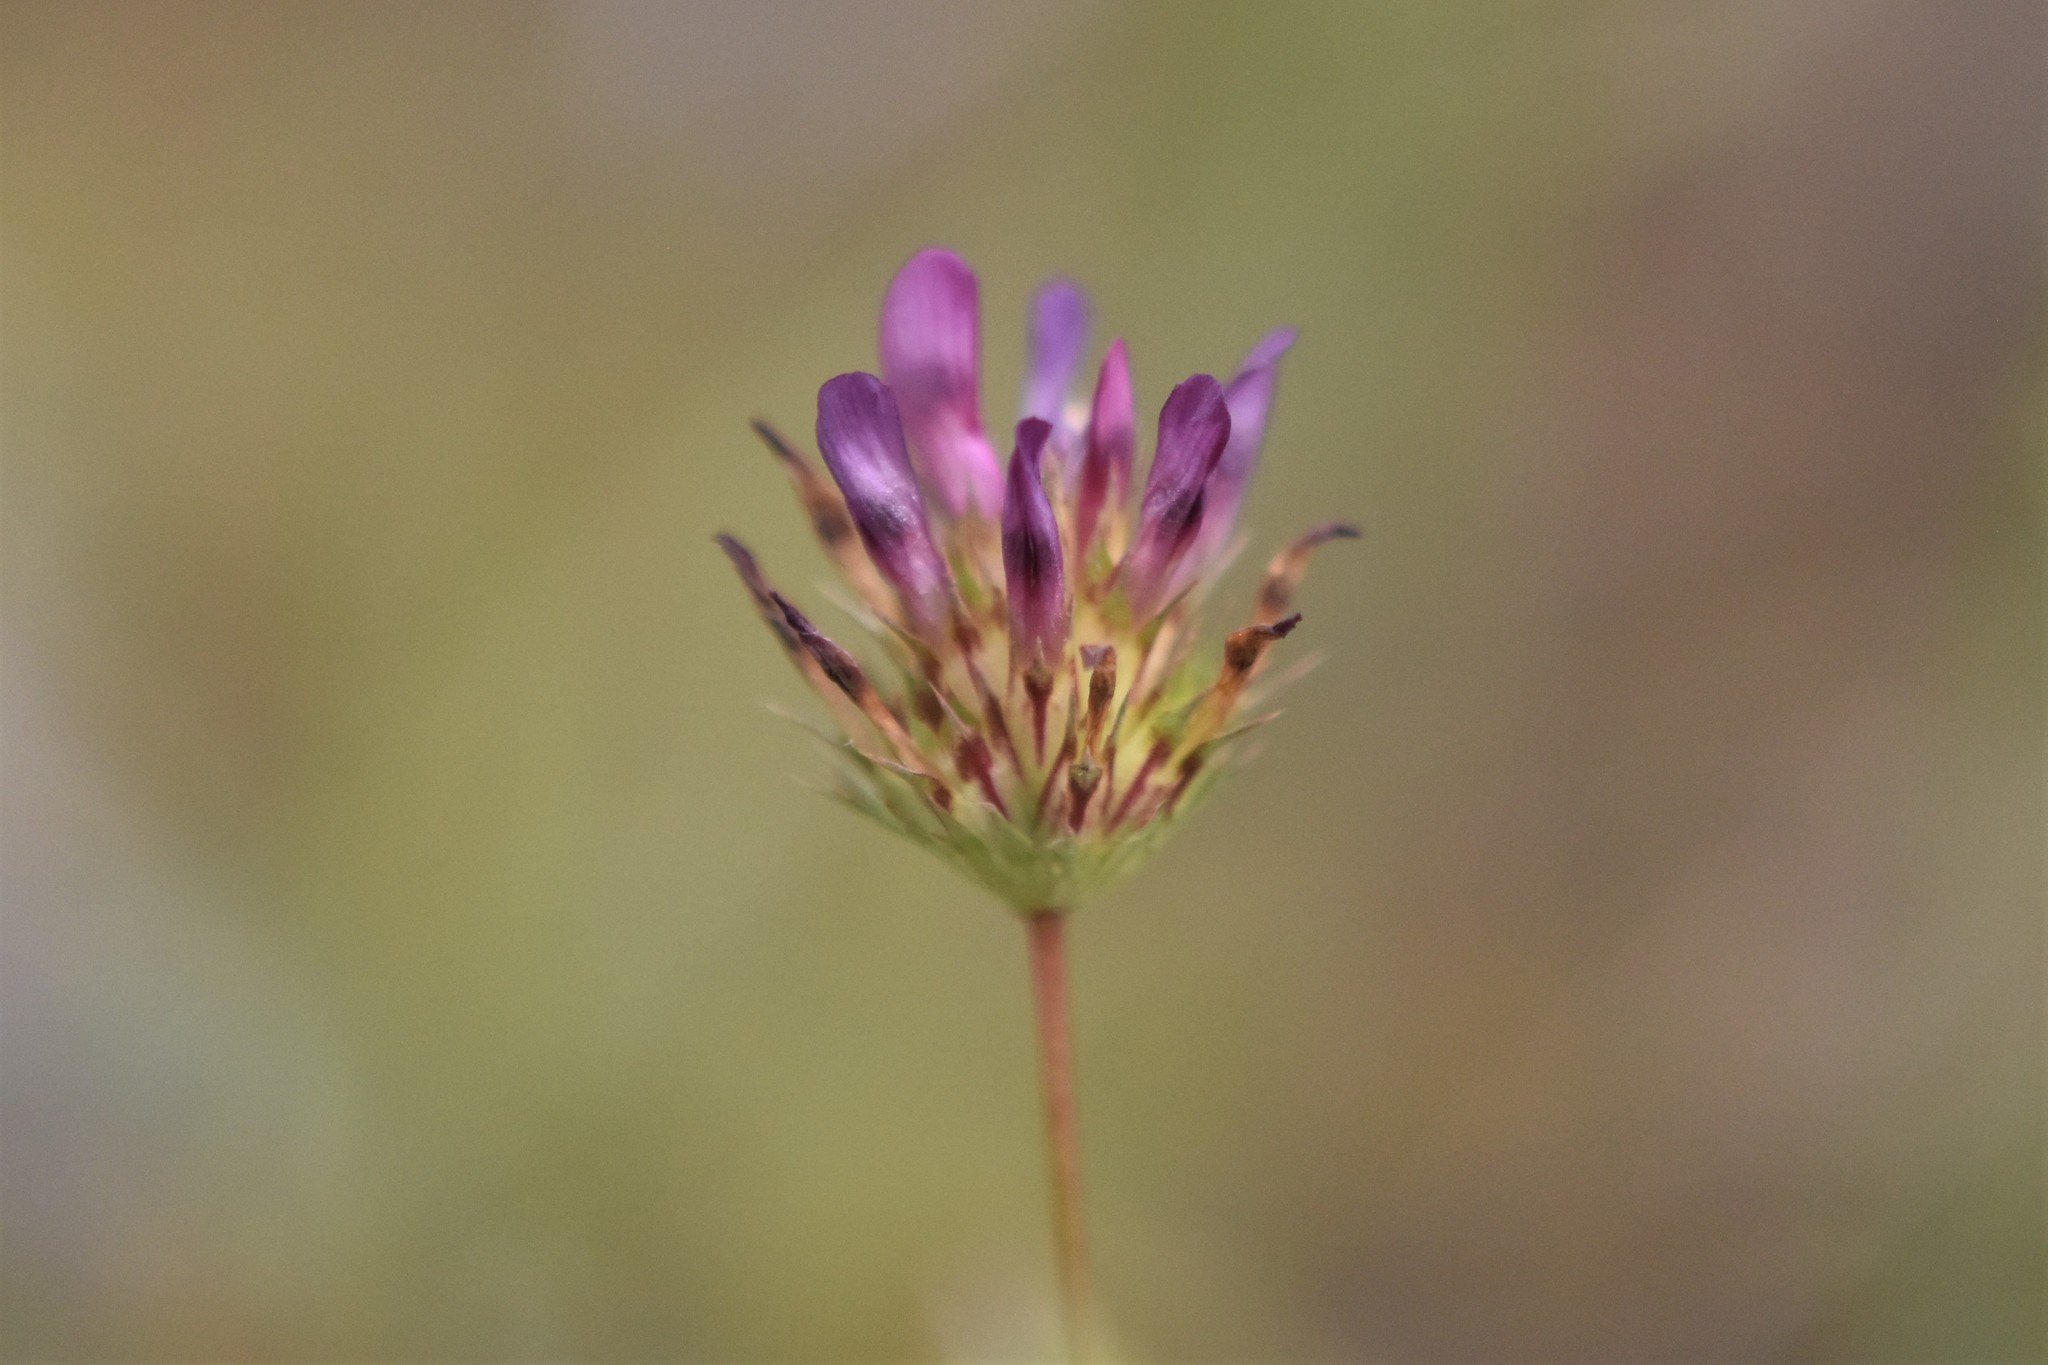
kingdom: Plantae
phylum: Tracheophyta
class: Magnoliopsida
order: Fabales
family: Fabaceae
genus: Trifolium
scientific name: Trifolium willdenovii
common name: Tomcat clover
